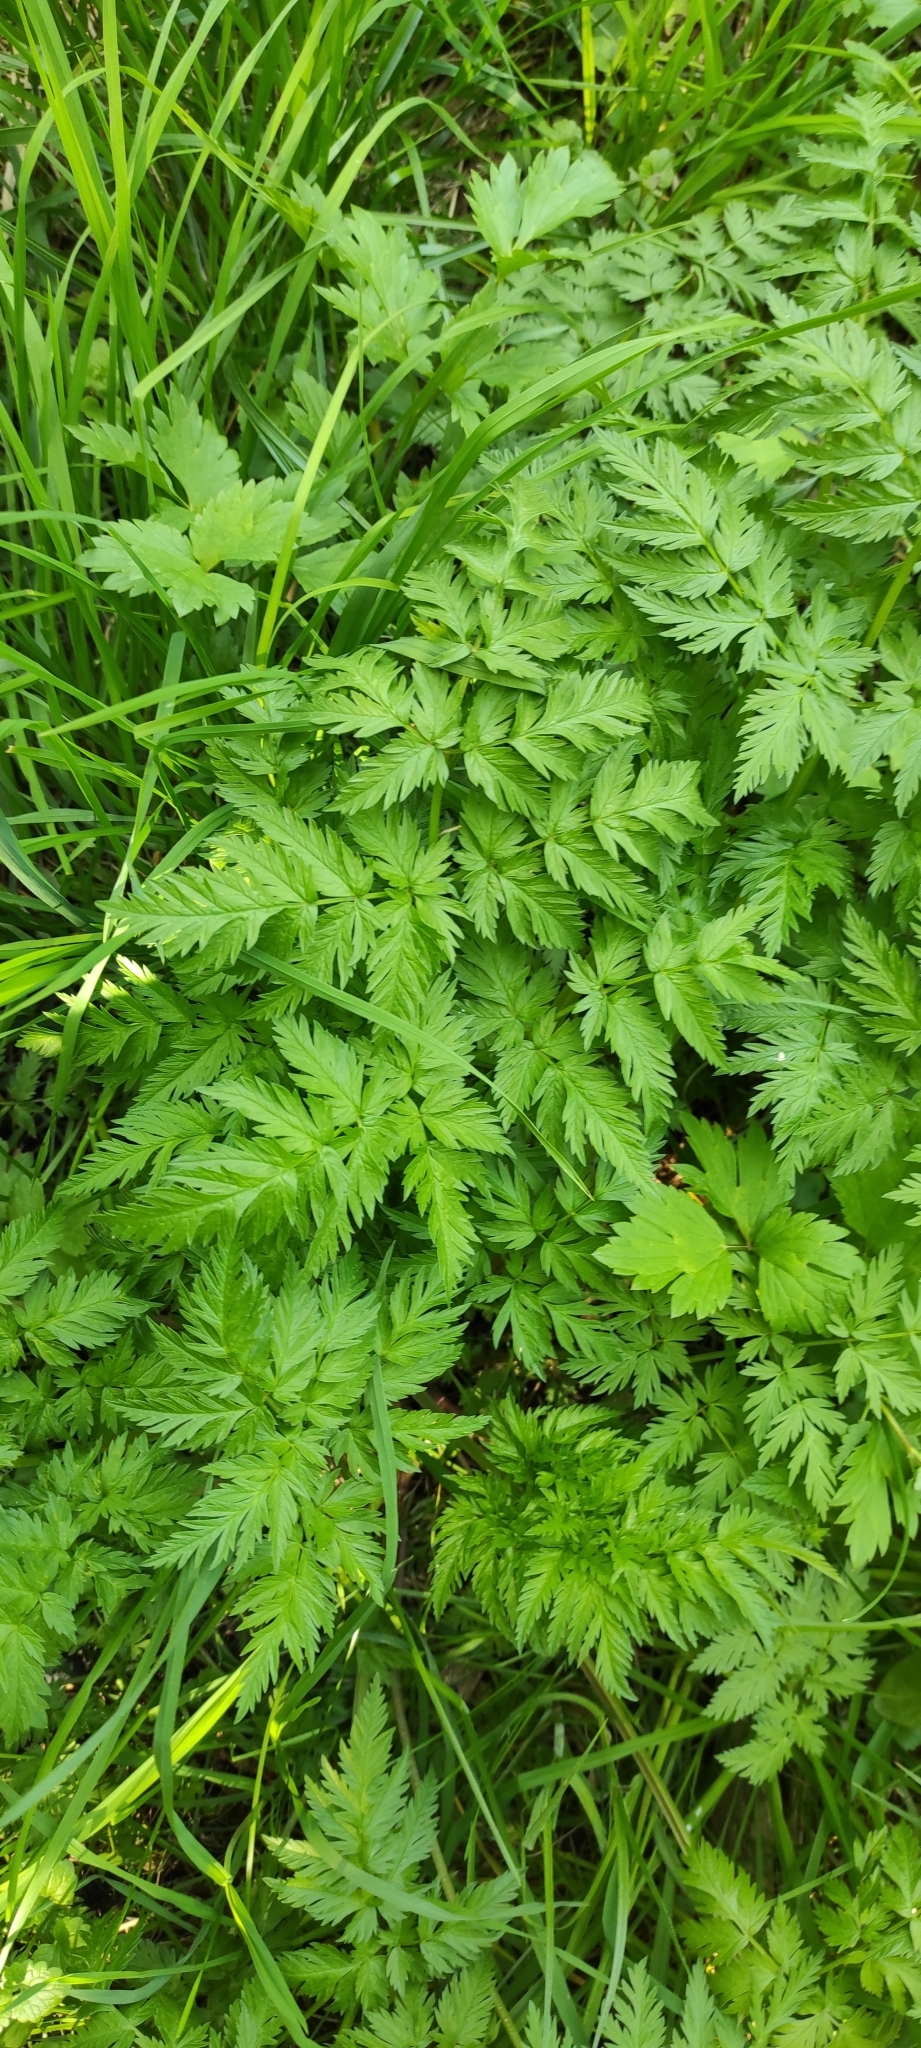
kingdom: Plantae
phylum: Tracheophyta
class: Magnoliopsida
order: Apiales
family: Apiaceae
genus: Anthriscus
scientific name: Anthriscus sylvestris
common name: Cow parsley
